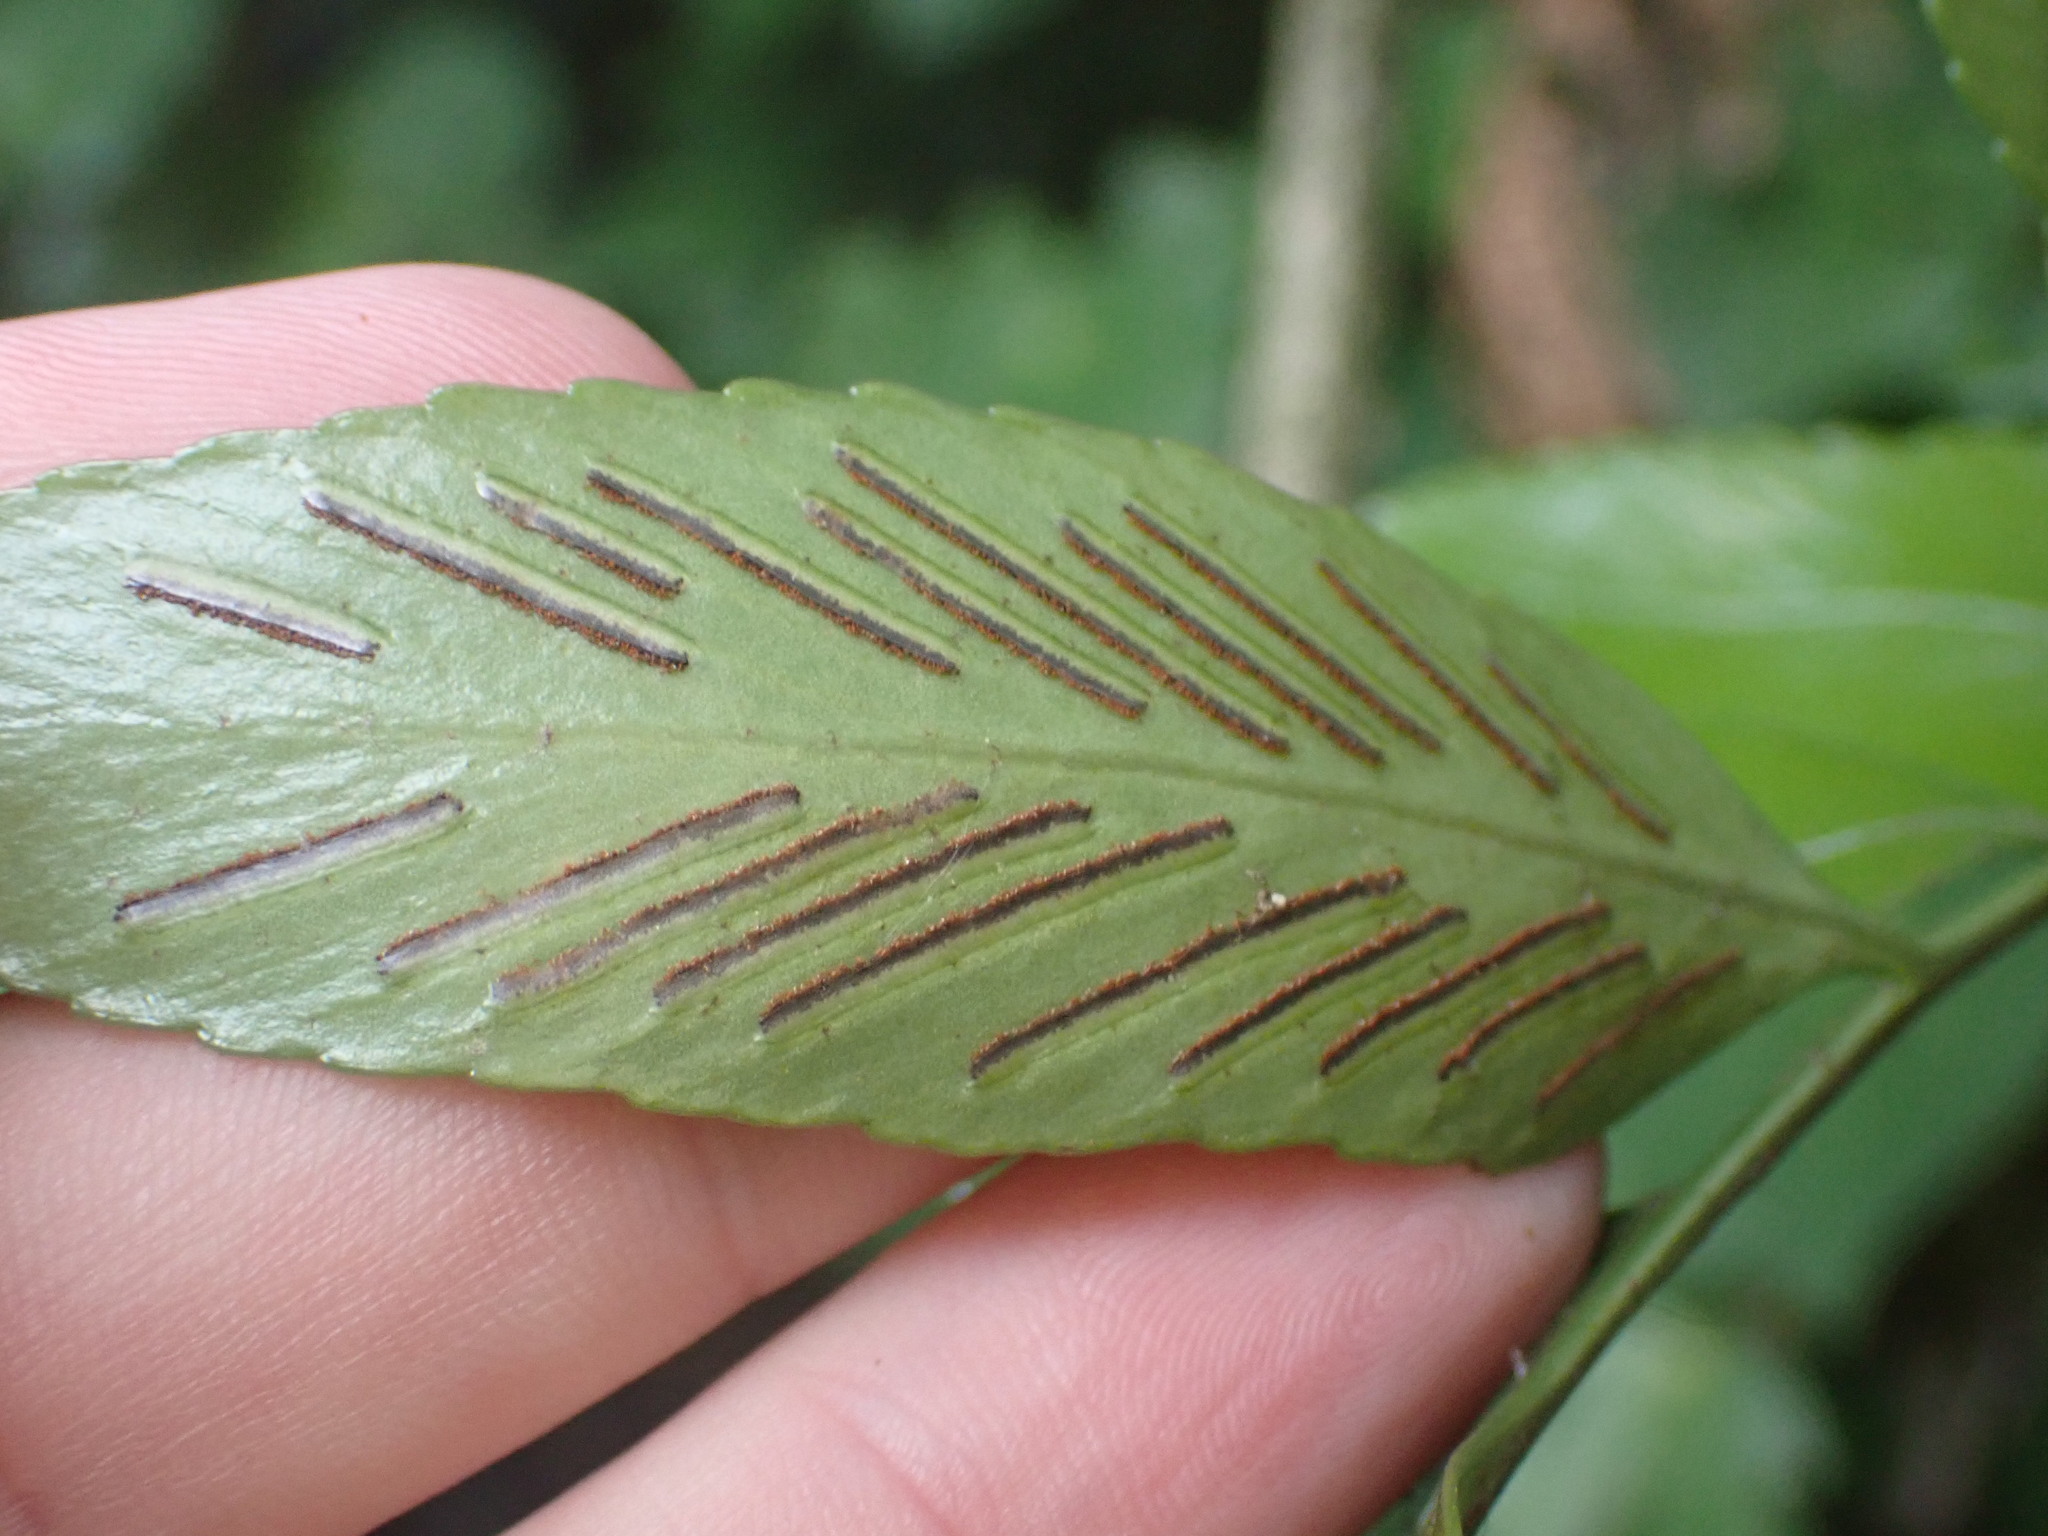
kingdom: Plantae
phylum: Tracheophyta
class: Polypodiopsida
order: Polypodiales
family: Aspleniaceae
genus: Asplenium
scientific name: Asplenium oblongifolium
